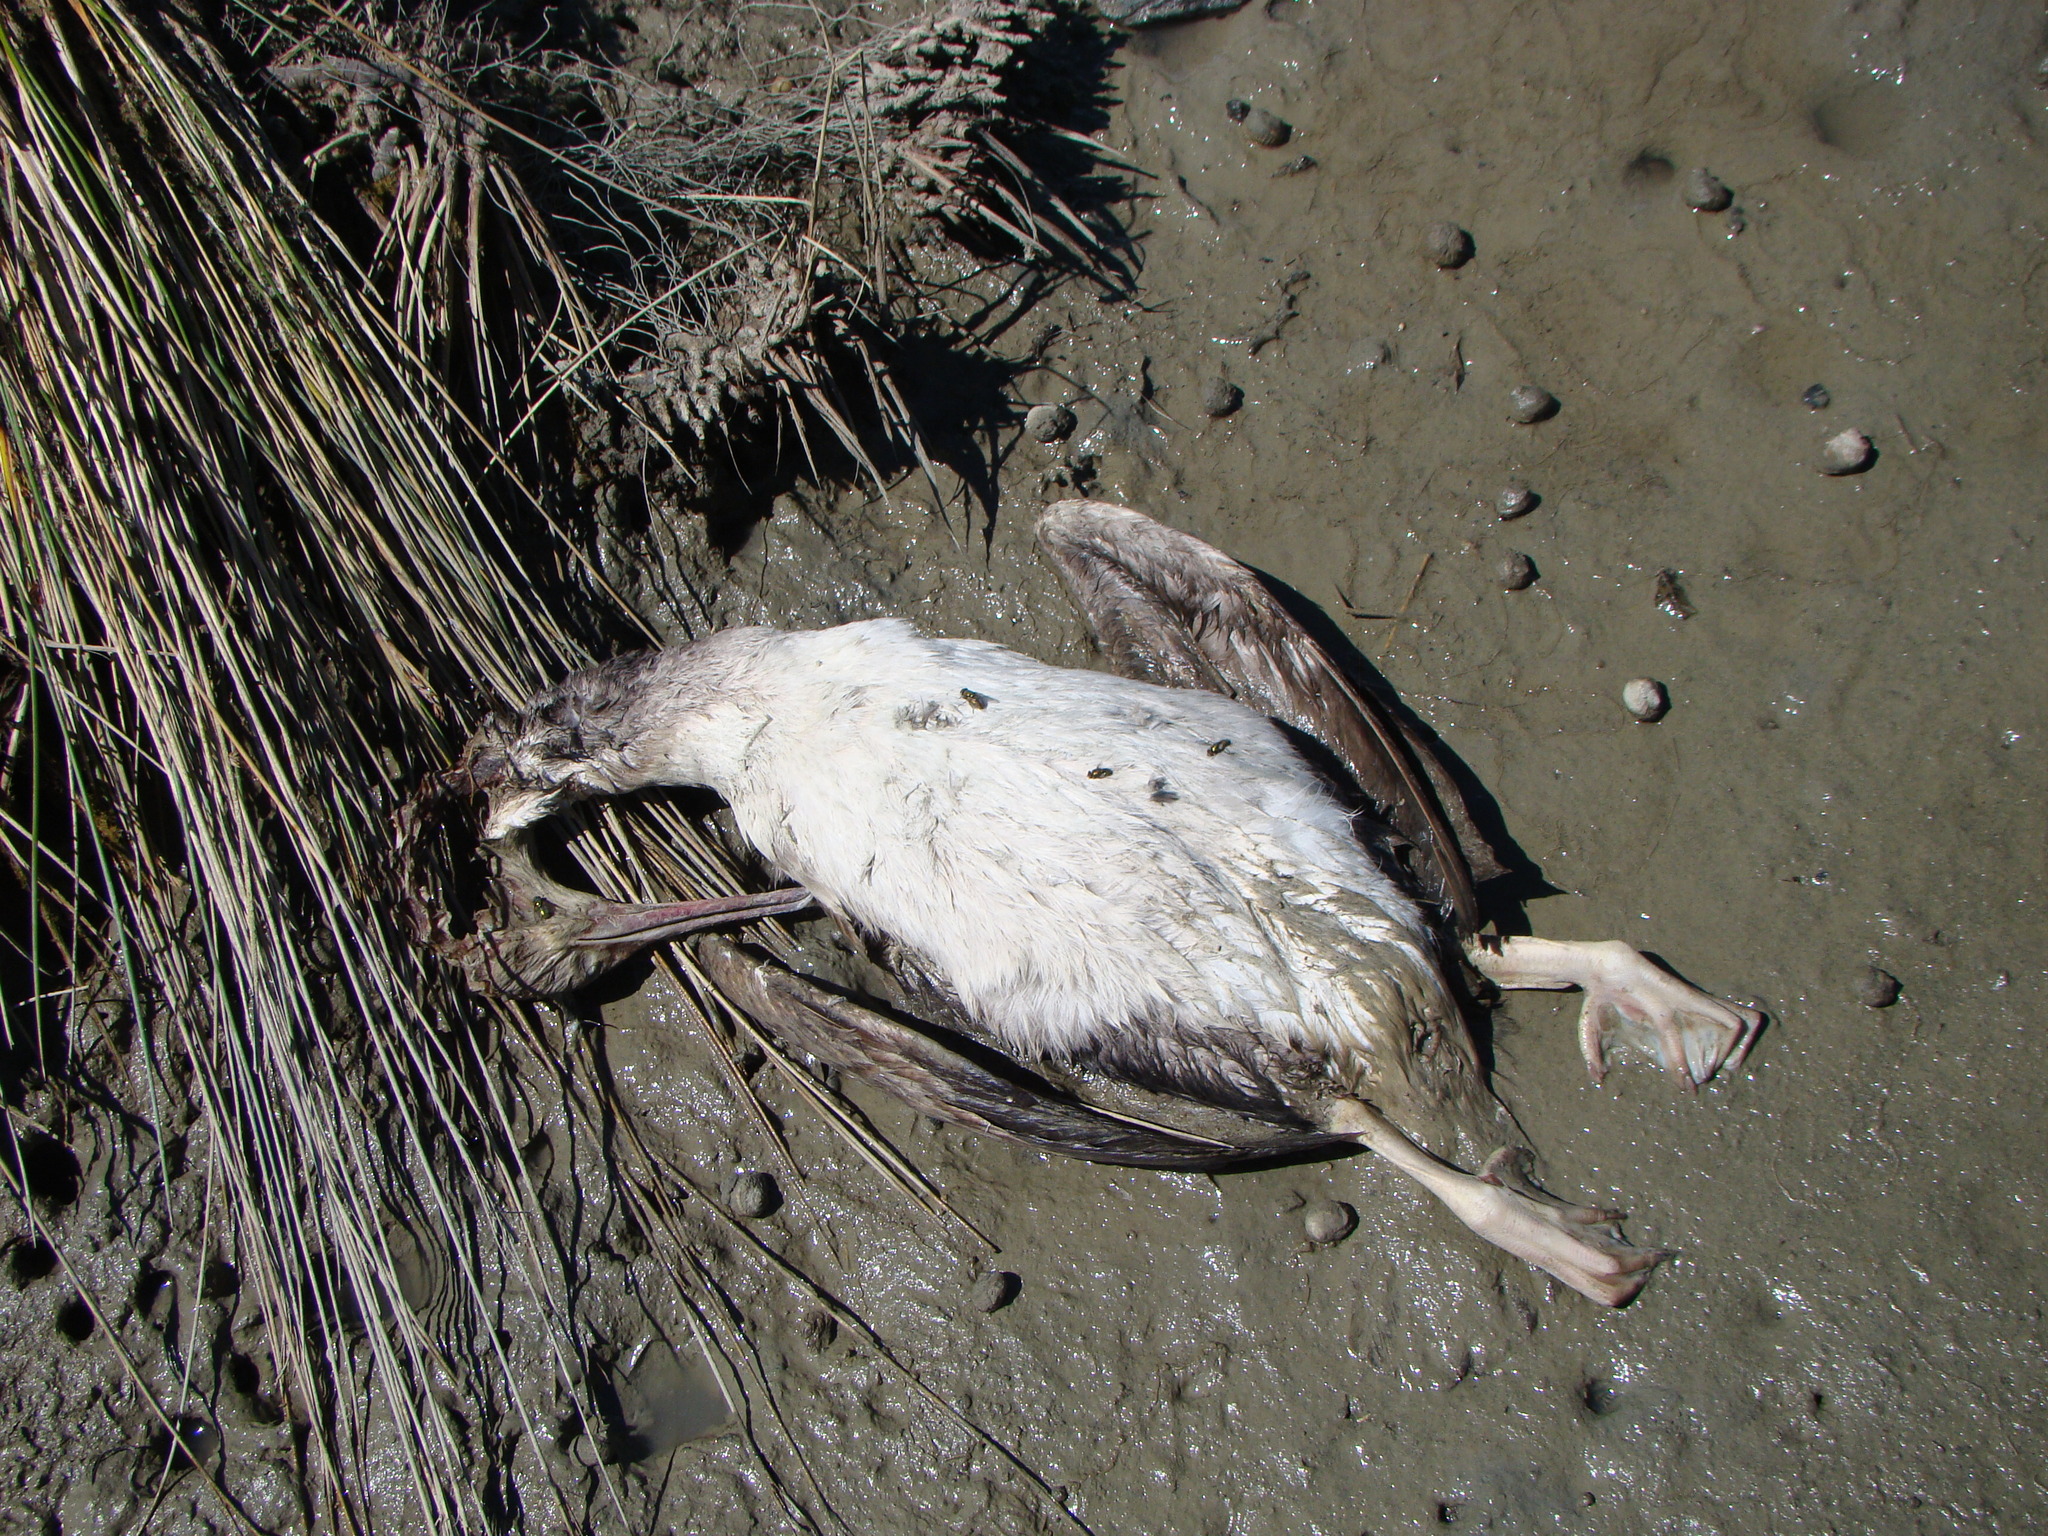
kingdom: Animalia
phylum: Chordata
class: Aves
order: Suliformes
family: Phalacrocoracidae
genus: Phalacrocorax
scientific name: Phalacrocorax punctatus
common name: Spotted shag
